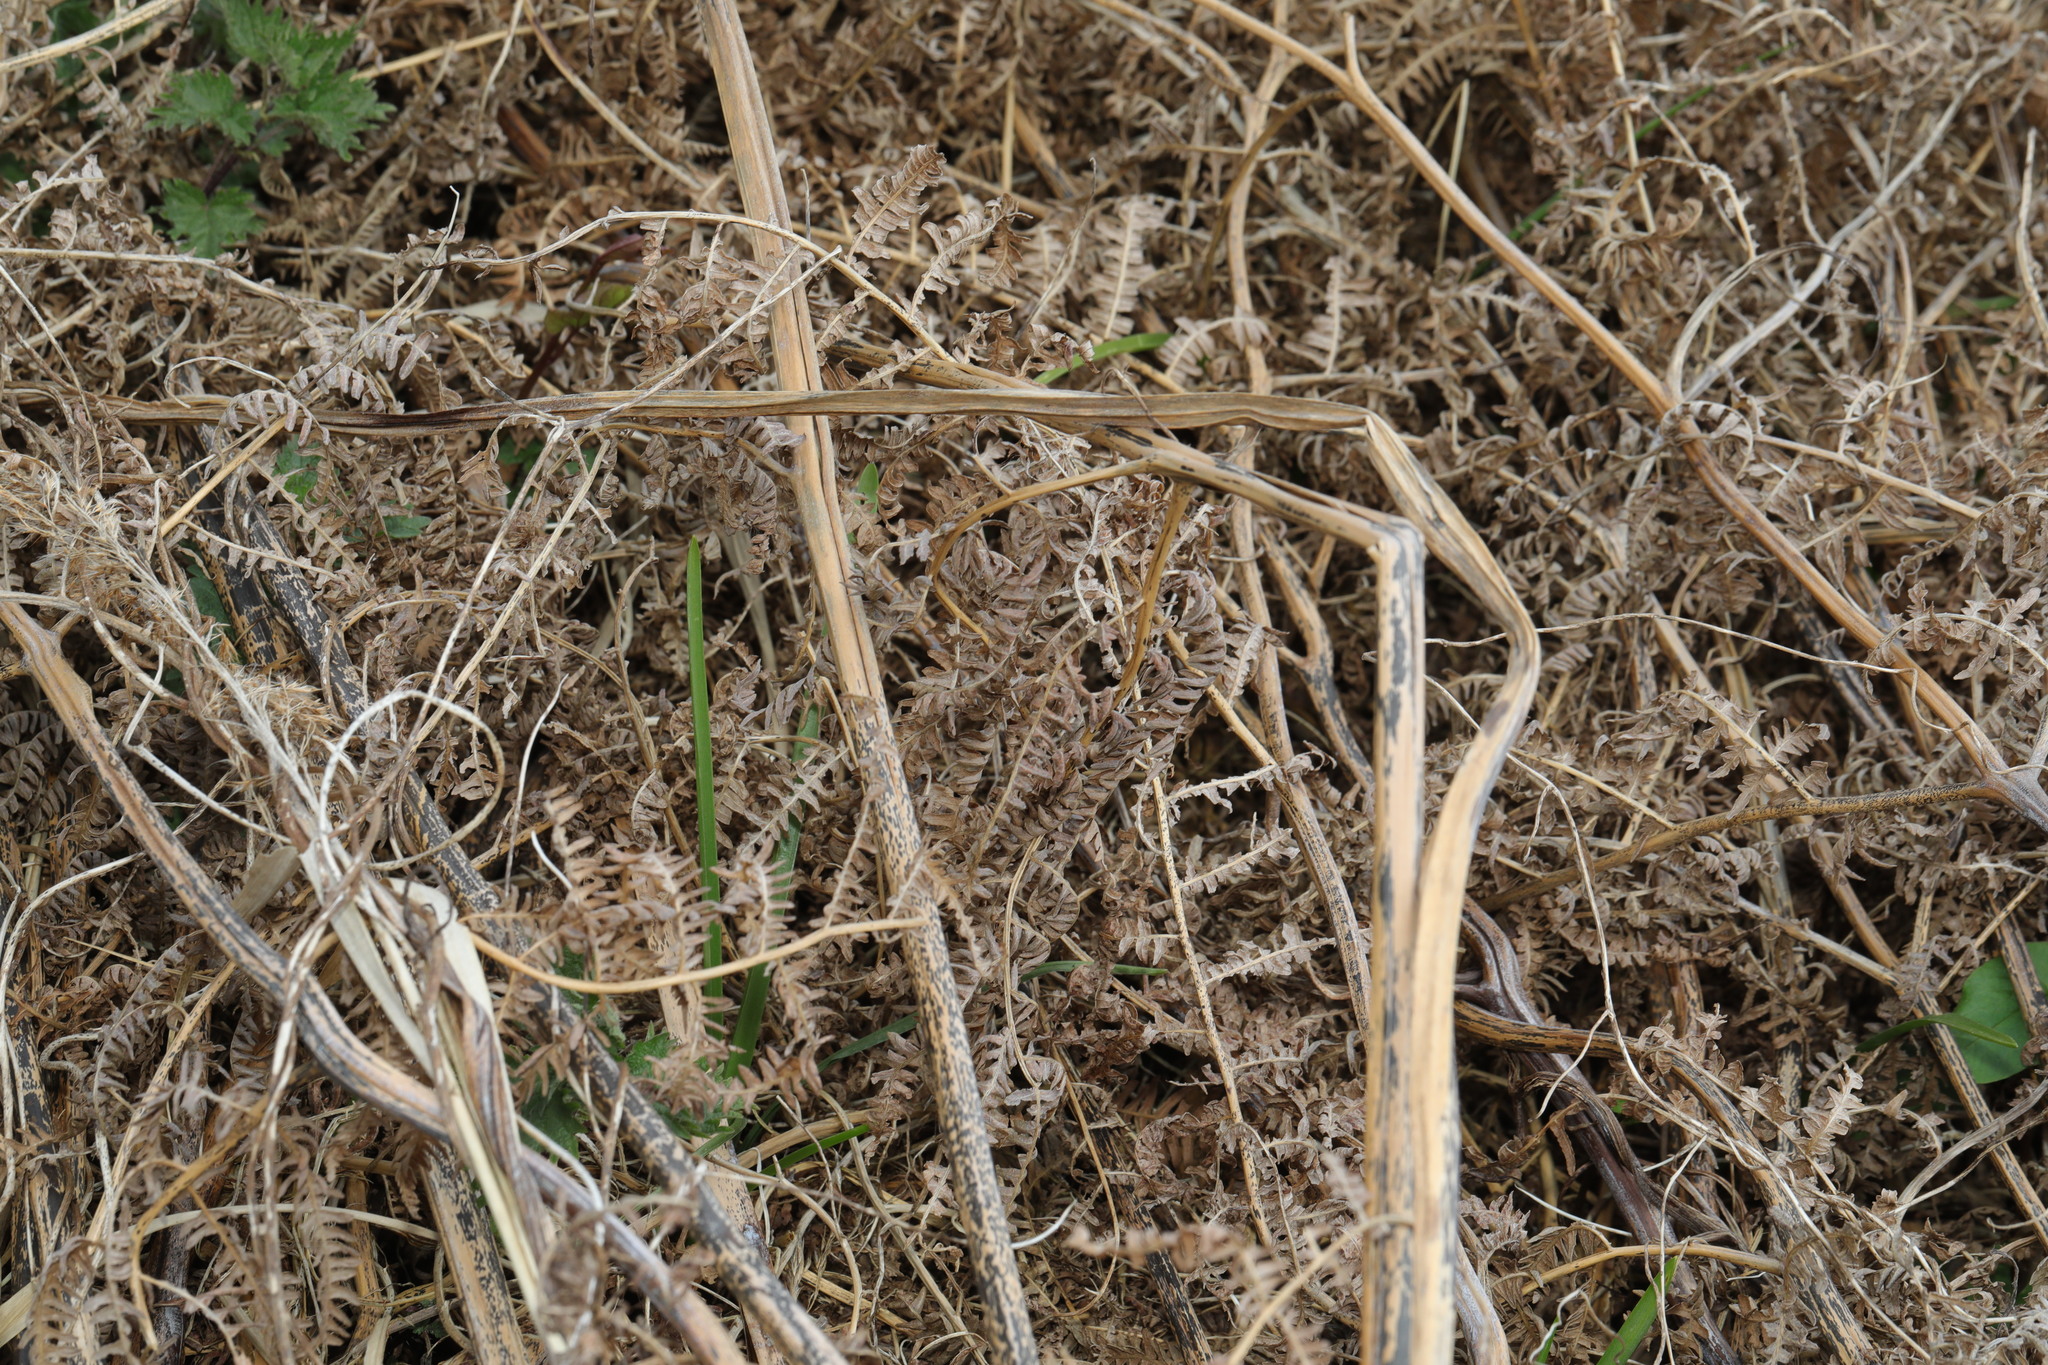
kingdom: Plantae
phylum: Tracheophyta
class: Polypodiopsida
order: Polypodiales
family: Dennstaedtiaceae
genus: Pteridium
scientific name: Pteridium aquilinum
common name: Bracken
